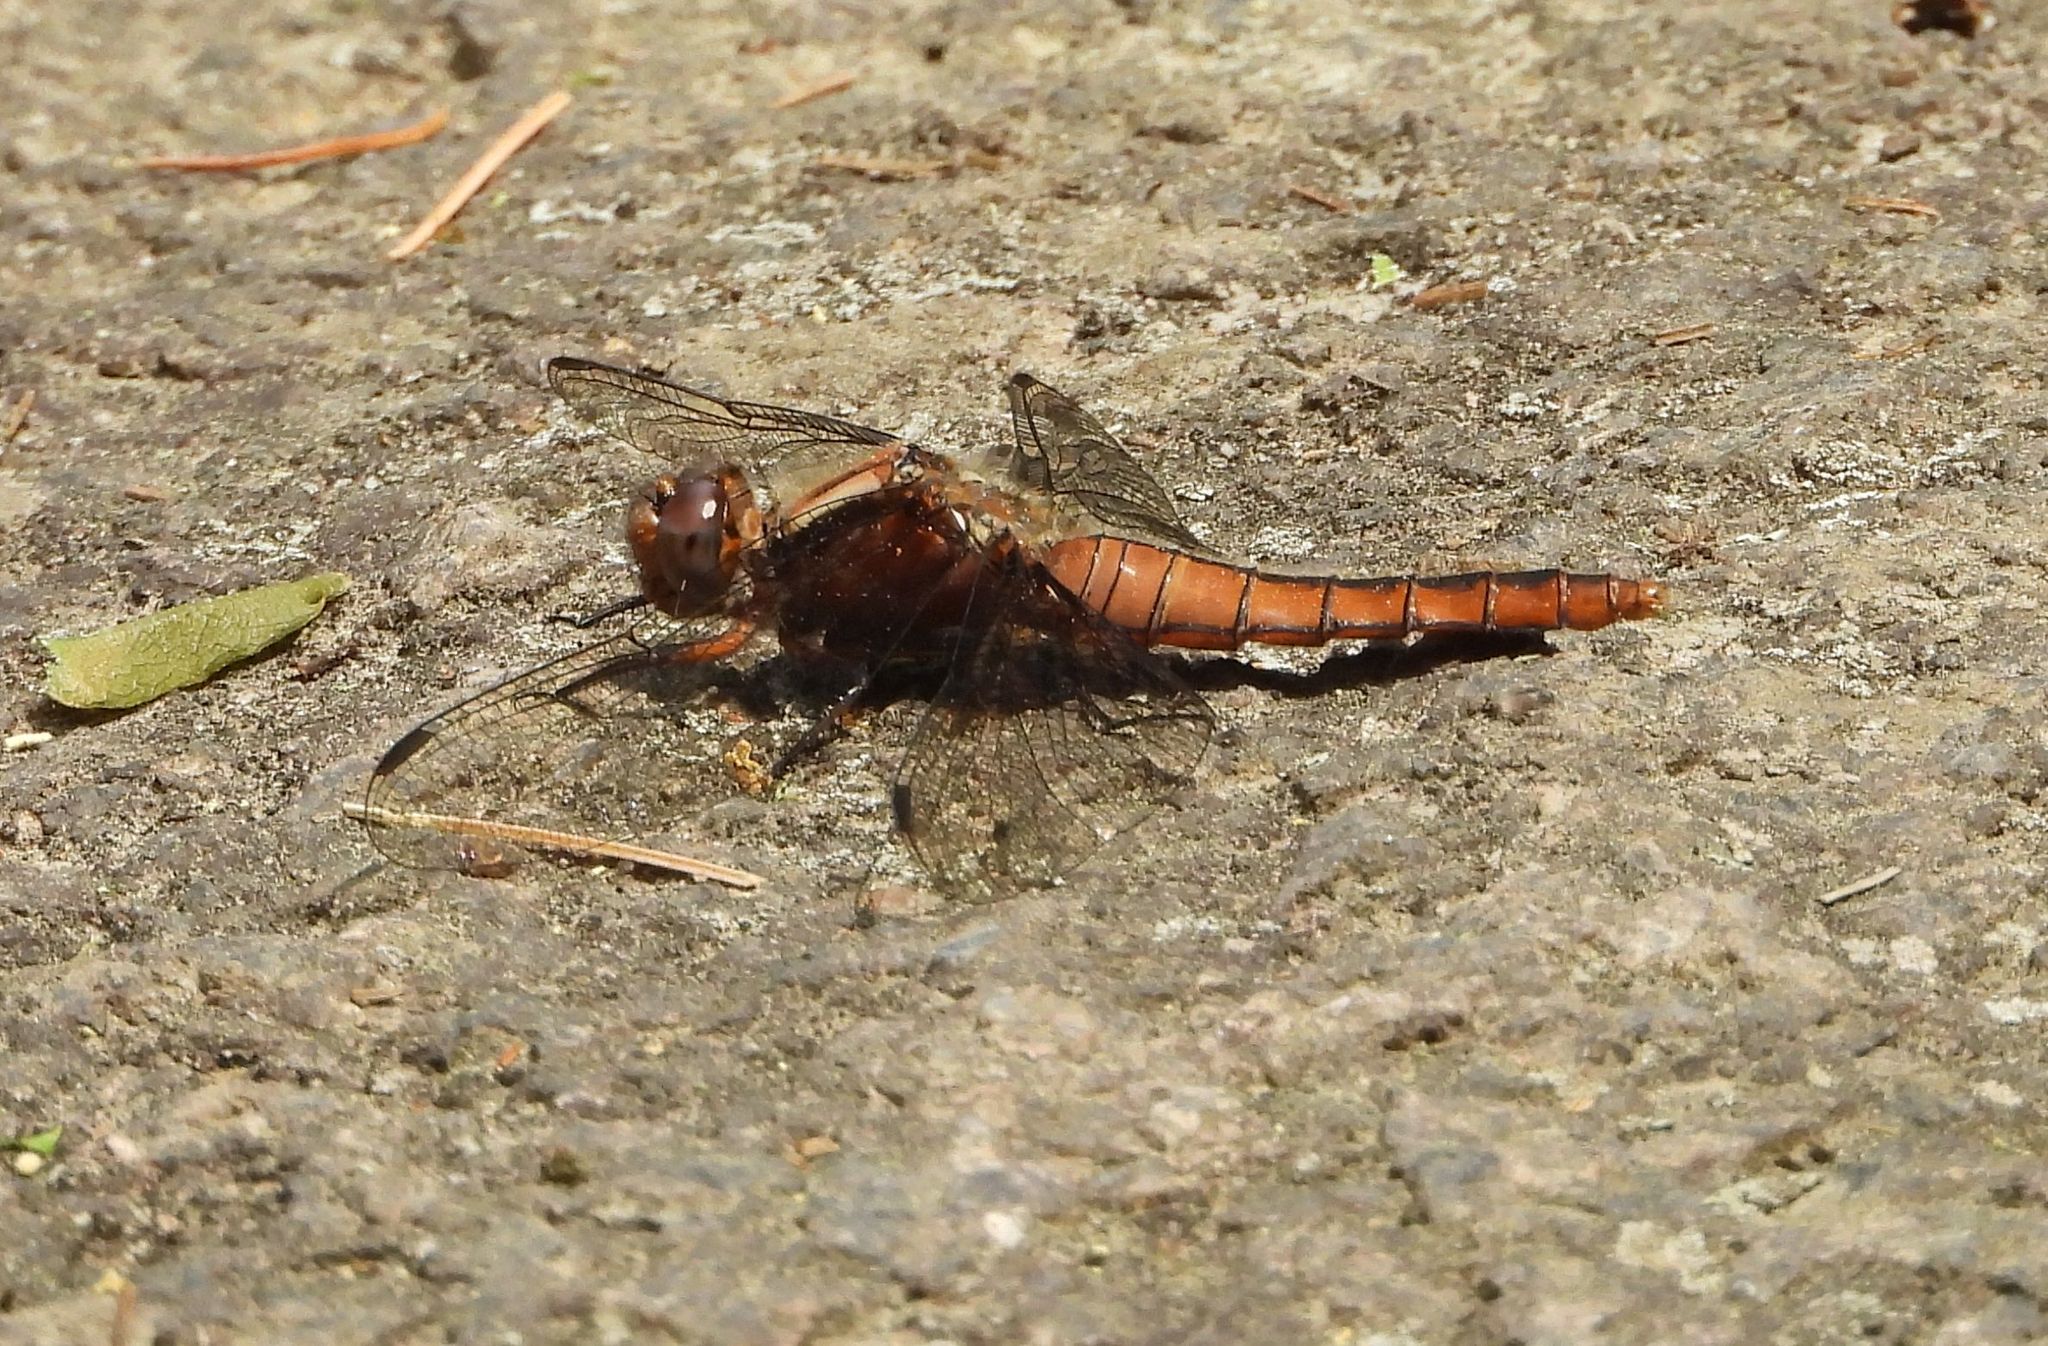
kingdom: Animalia
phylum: Arthropoda
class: Insecta
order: Odonata
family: Libellulidae
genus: Ladona
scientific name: Ladona julia
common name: Chalk-fronted corporal
